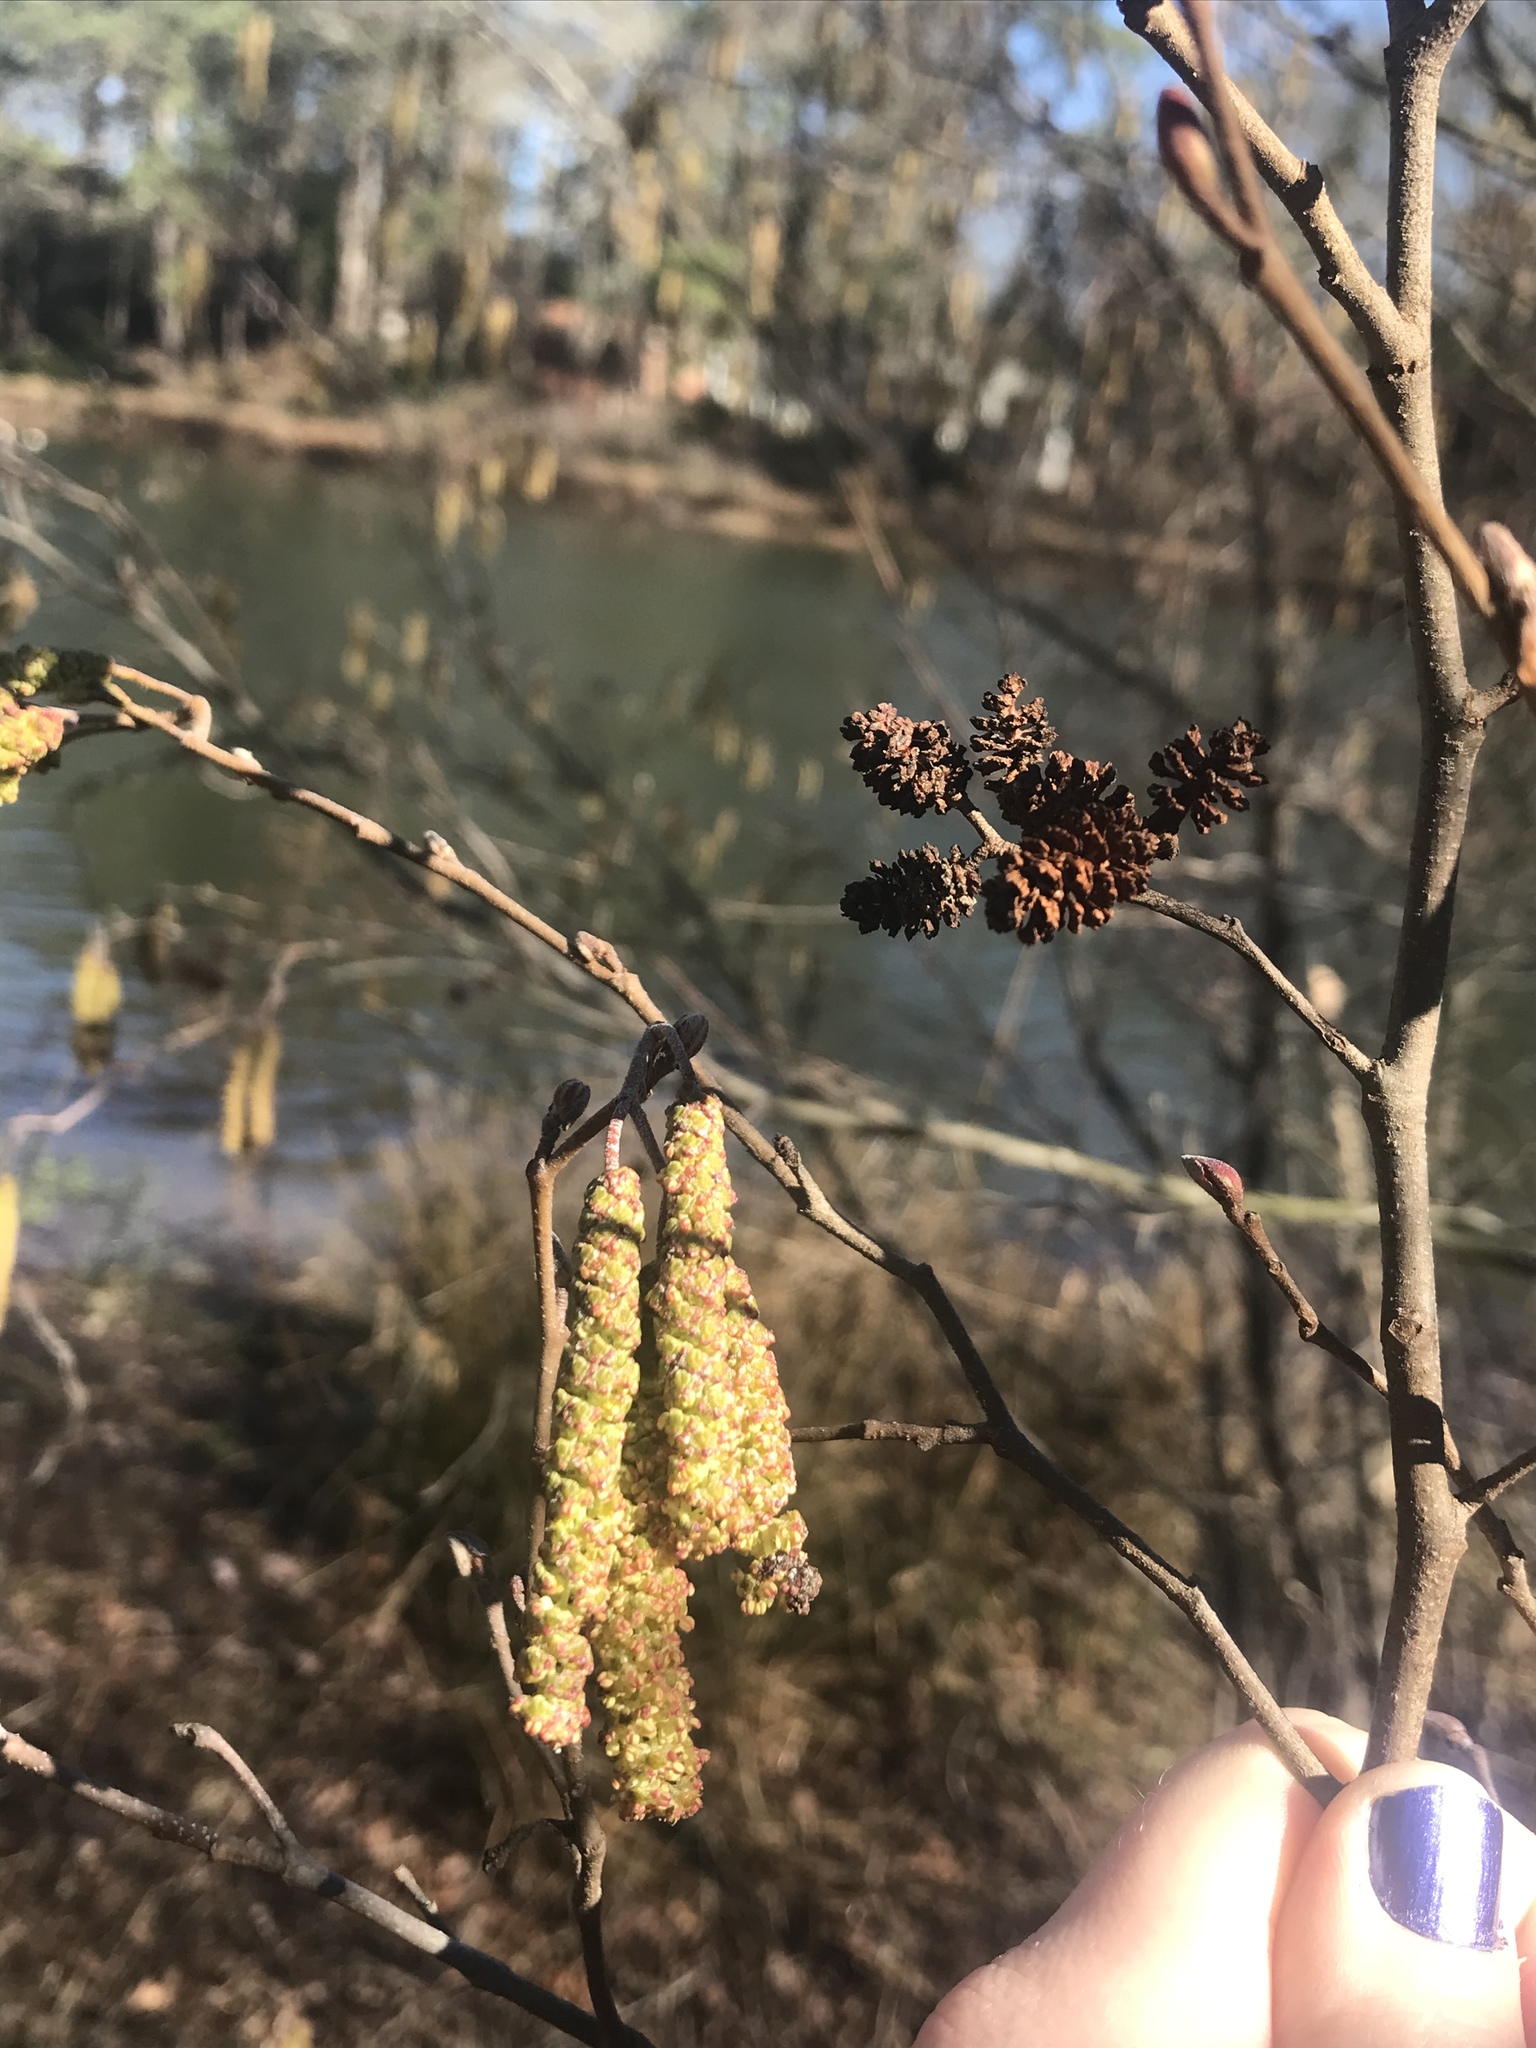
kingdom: Plantae
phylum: Tracheophyta
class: Magnoliopsida
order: Fagales
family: Betulaceae
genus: Alnus
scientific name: Alnus serrulata
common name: Hazel alder
